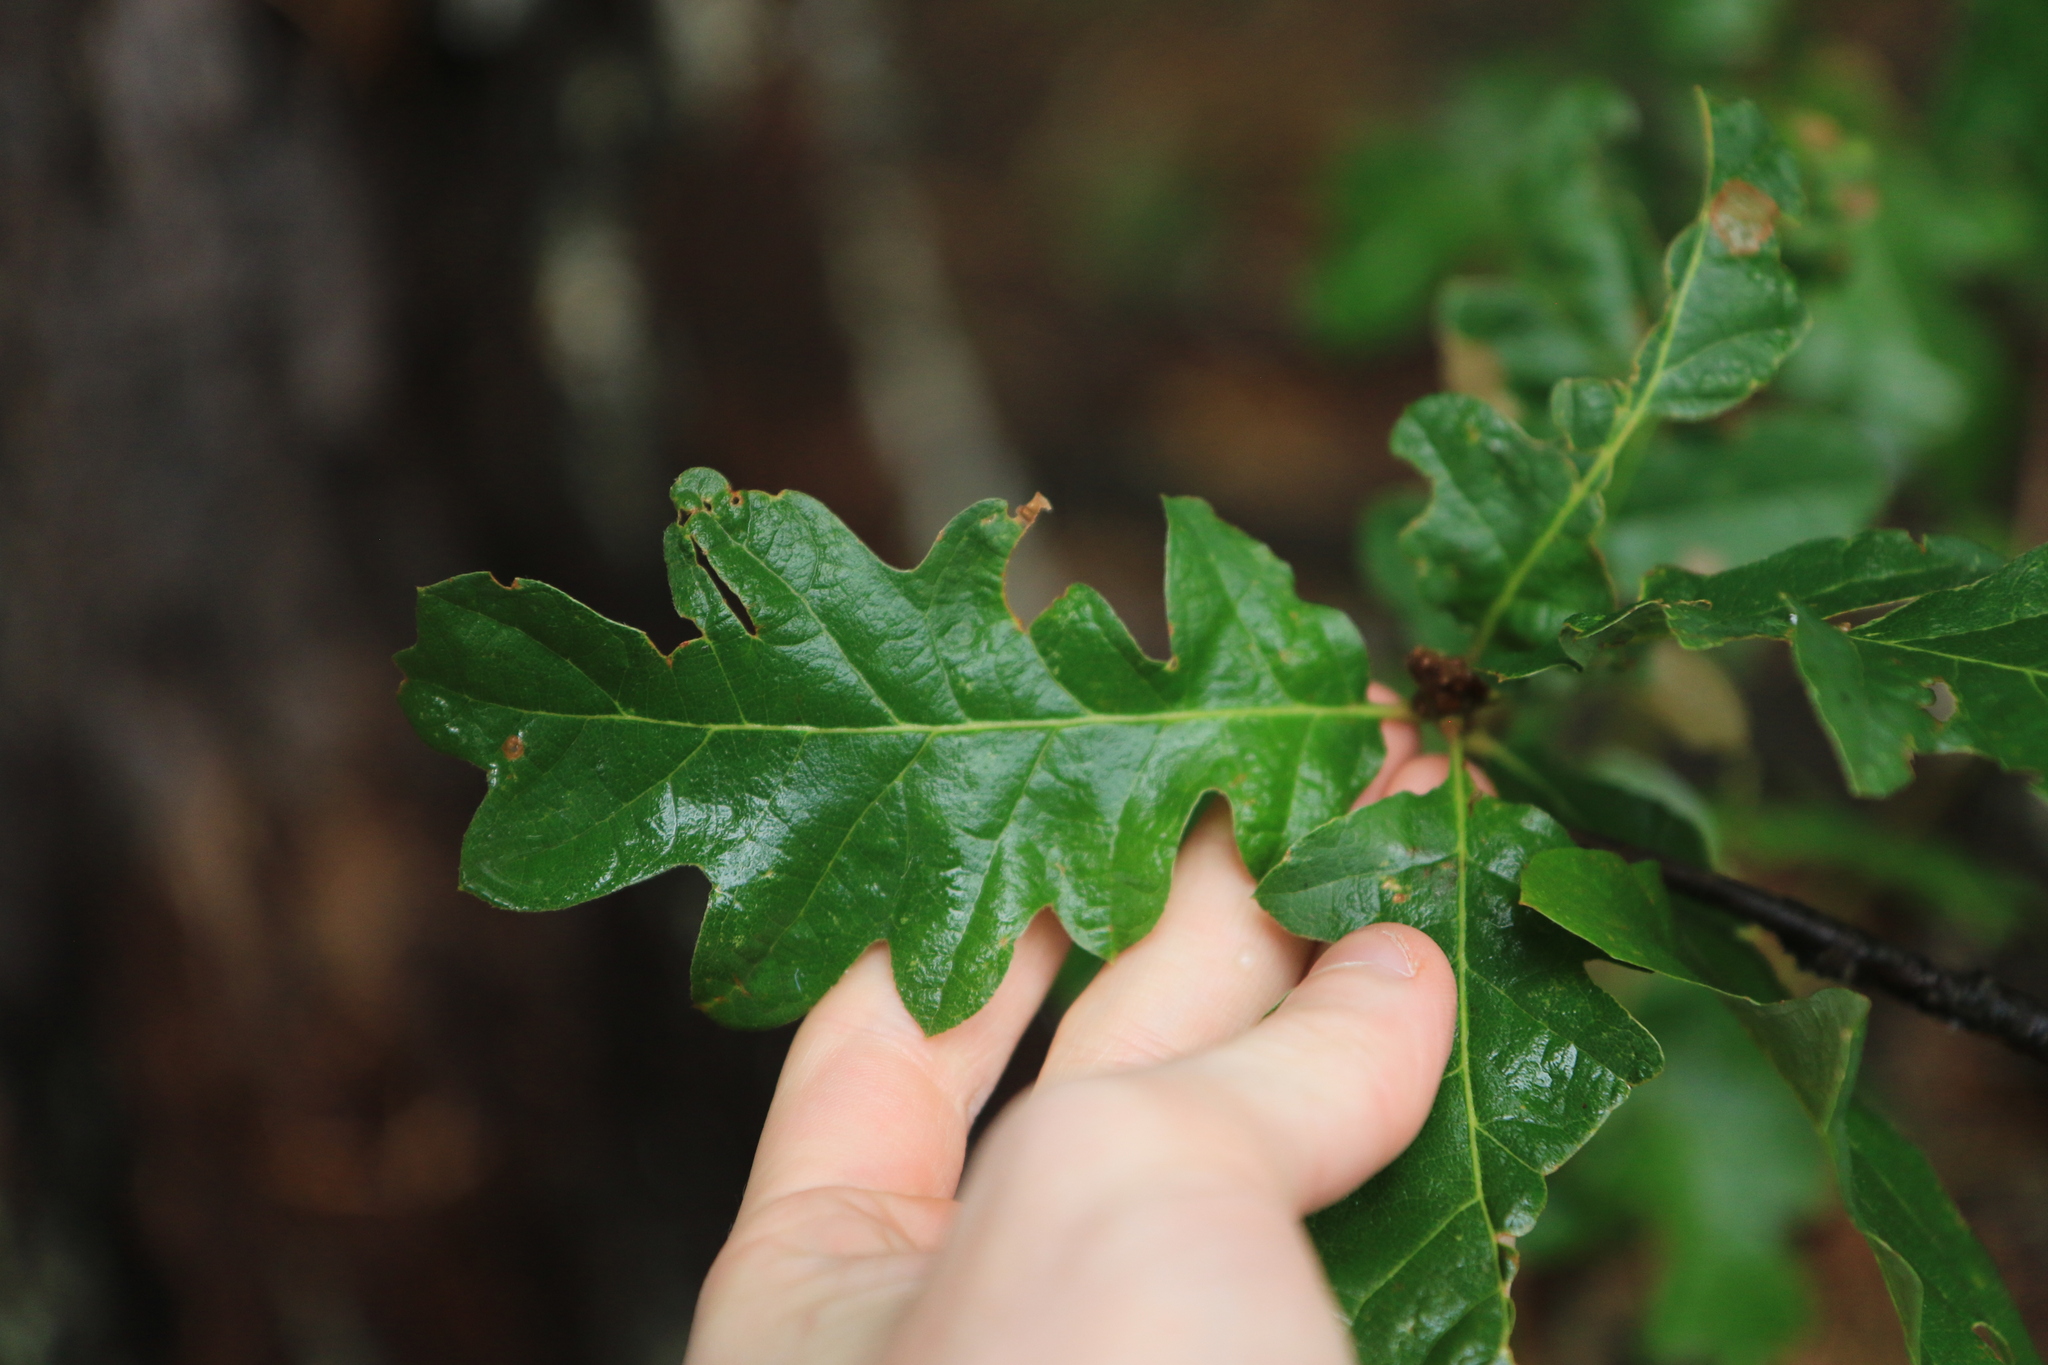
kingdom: Plantae
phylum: Tracheophyta
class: Magnoliopsida
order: Fagales
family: Fagaceae
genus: Quercus
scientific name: Quercus garryana
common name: Garry oak
